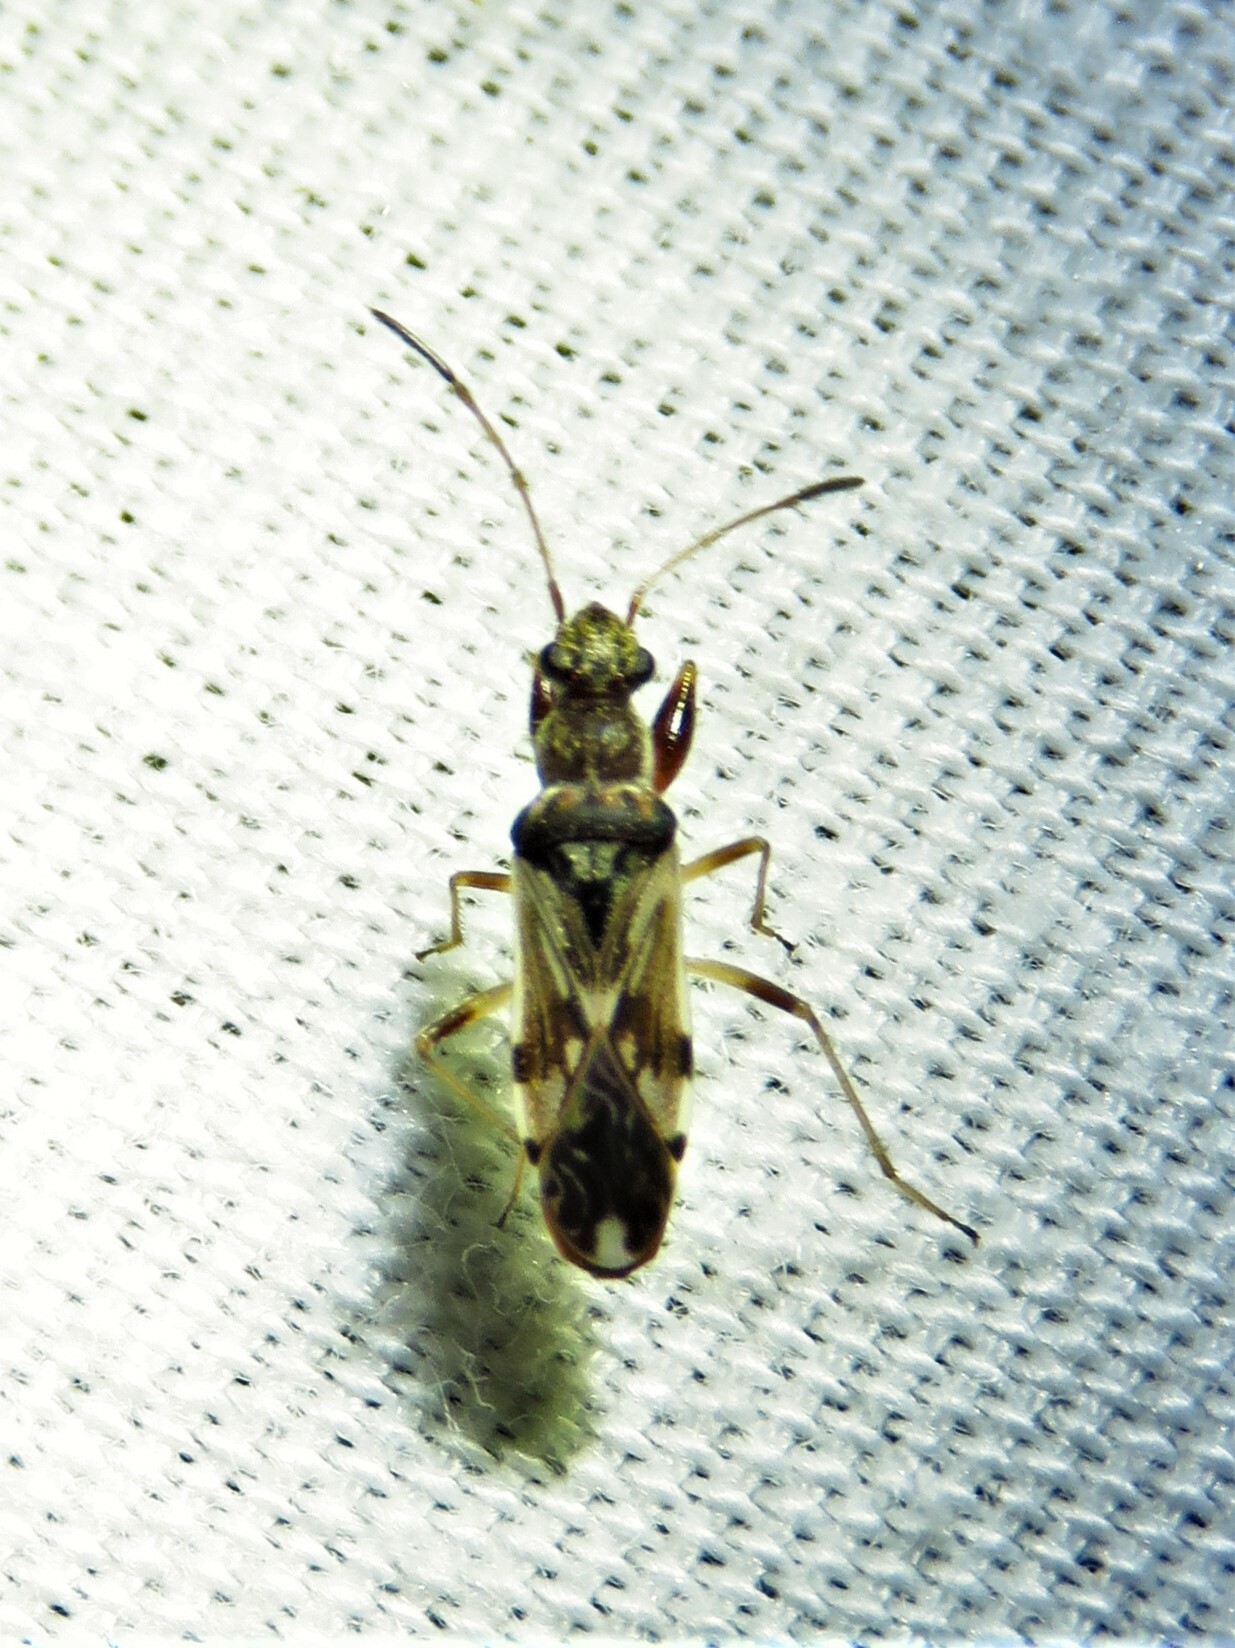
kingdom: Animalia
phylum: Arthropoda
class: Insecta
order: Hemiptera
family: Rhyparochromidae
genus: Neopamera
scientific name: Neopamera bilobata
